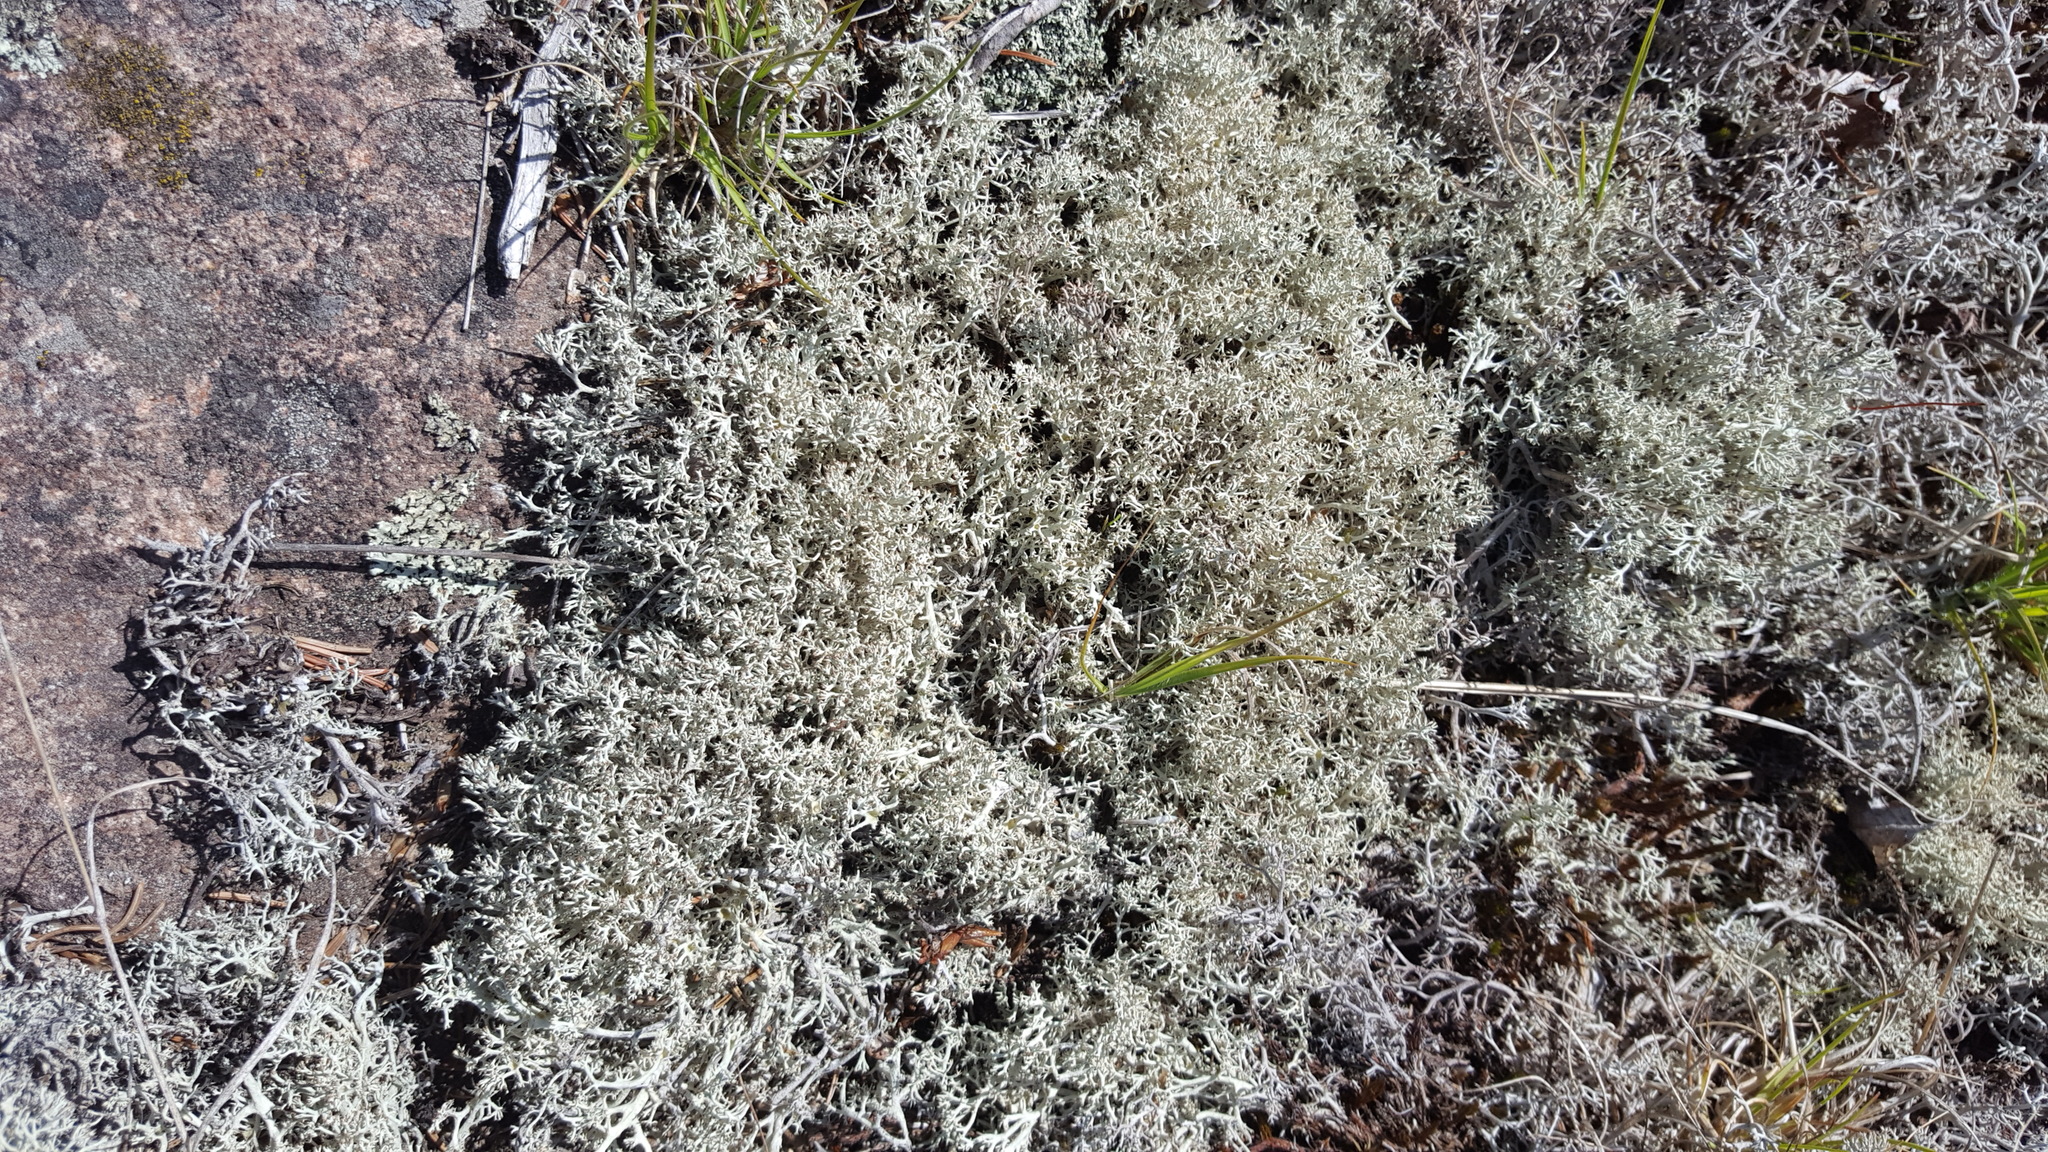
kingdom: Fungi
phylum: Ascomycota
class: Lecanoromycetes
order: Lecanorales
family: Cladoniaceae
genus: Cladonia
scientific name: Cladonia mitis
